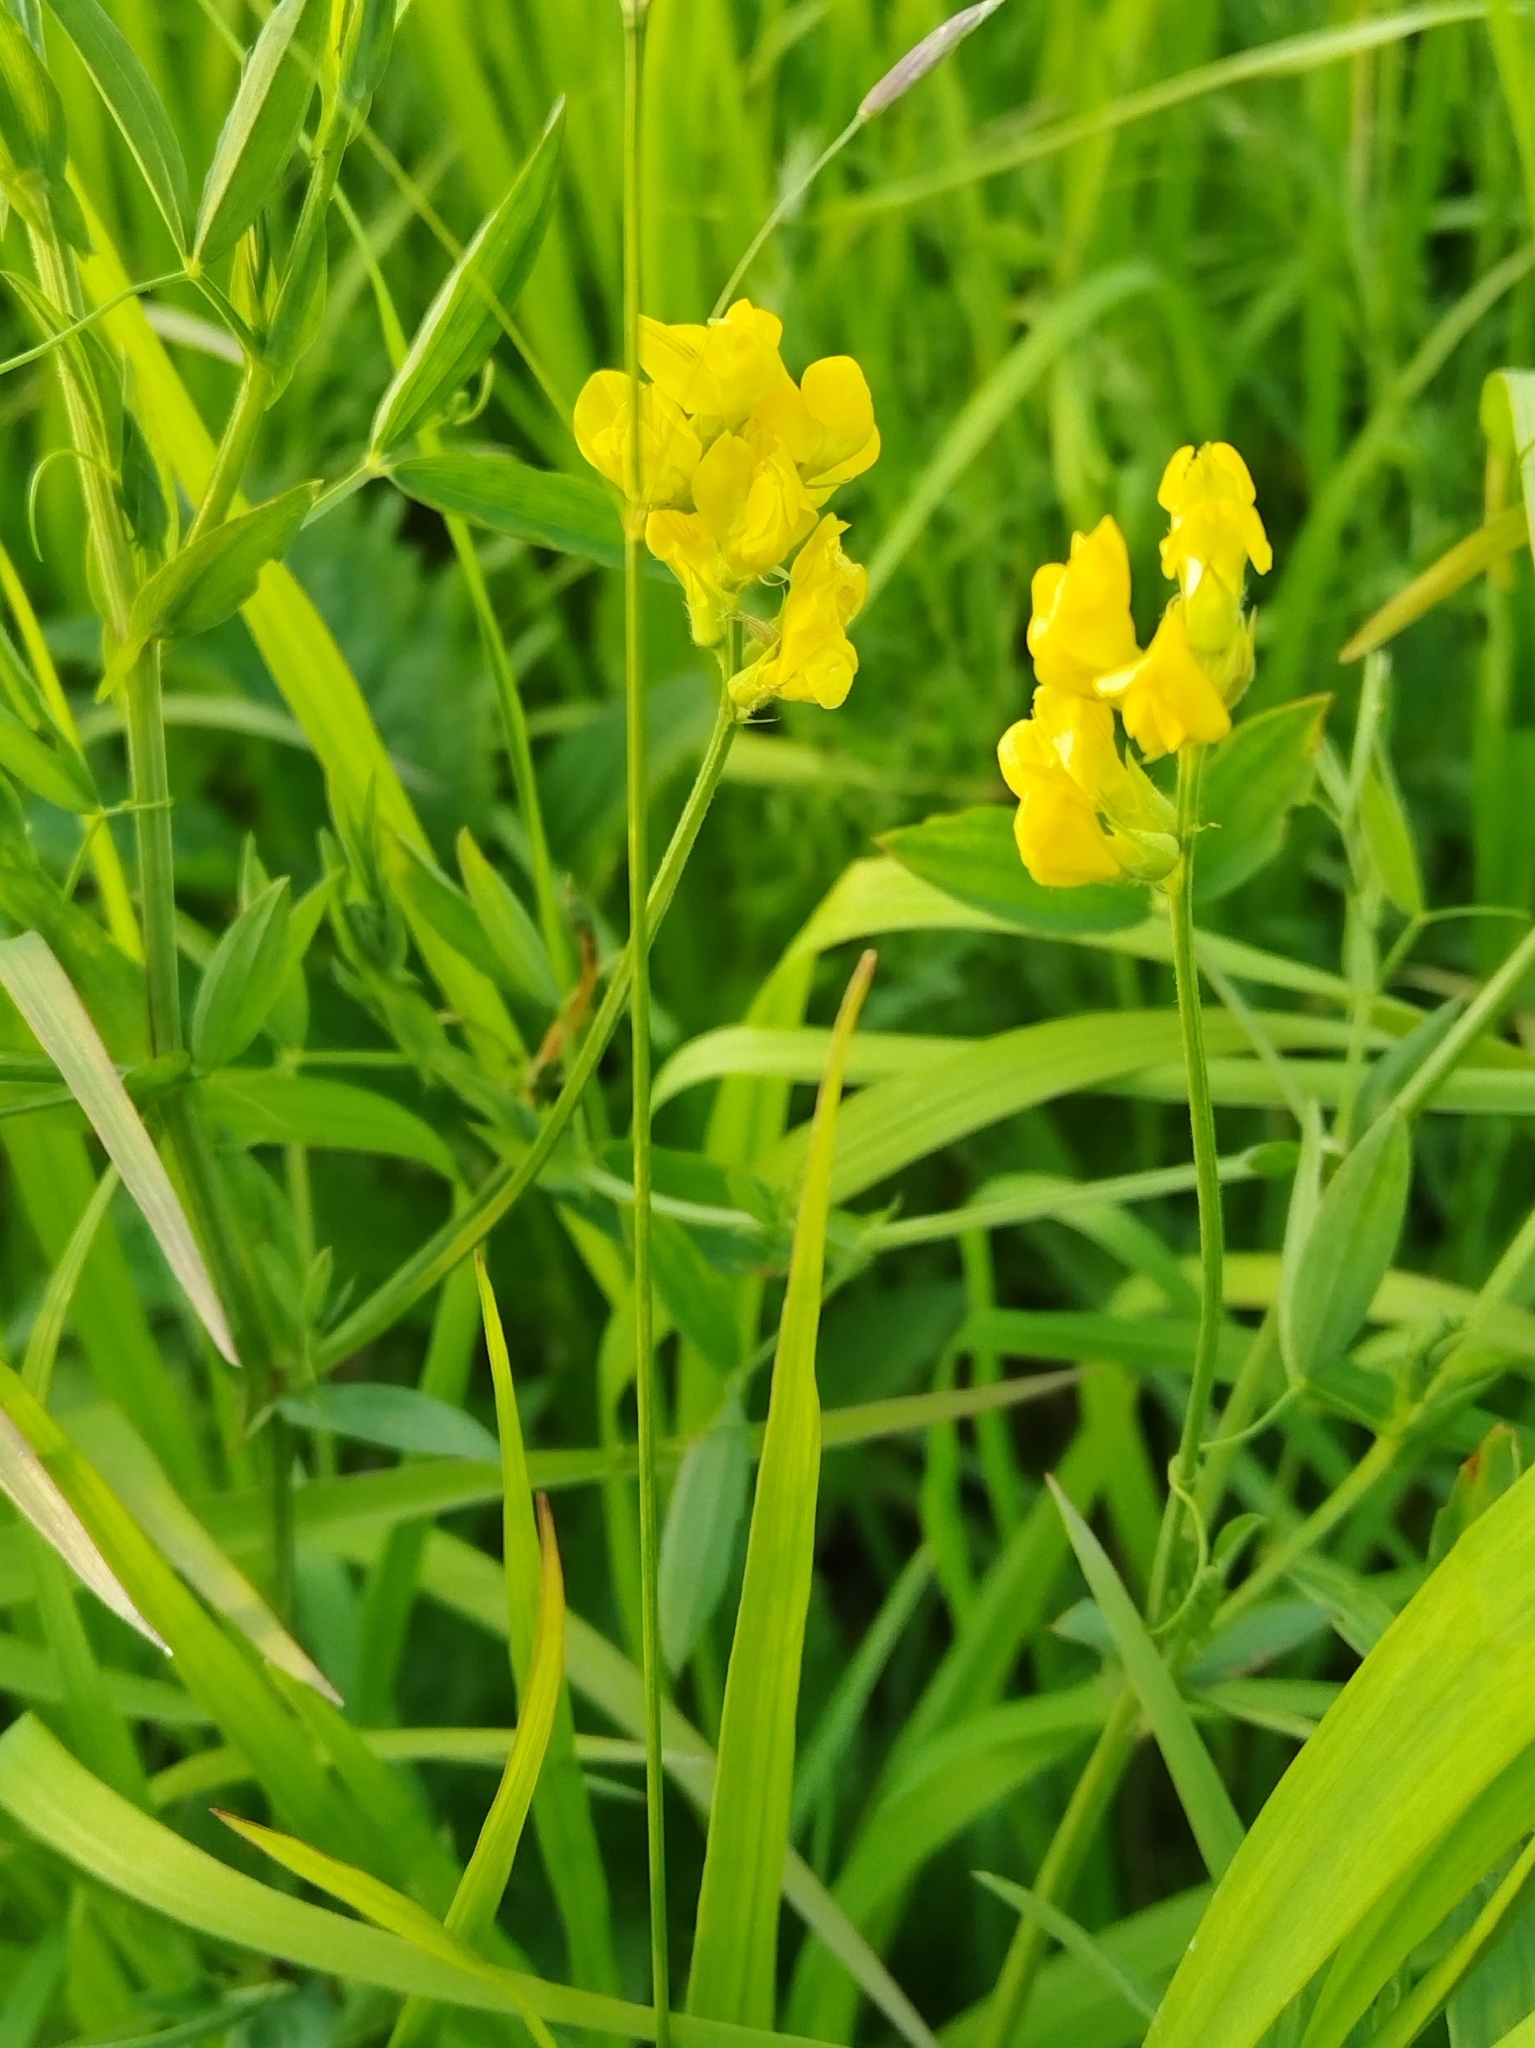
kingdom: Plantae
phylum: Tracheophyta
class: Magnoliopsida
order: Fabales
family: Fabaceae
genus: Lathyrus
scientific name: Lathyrus pratensis
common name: Meadow vetchling
